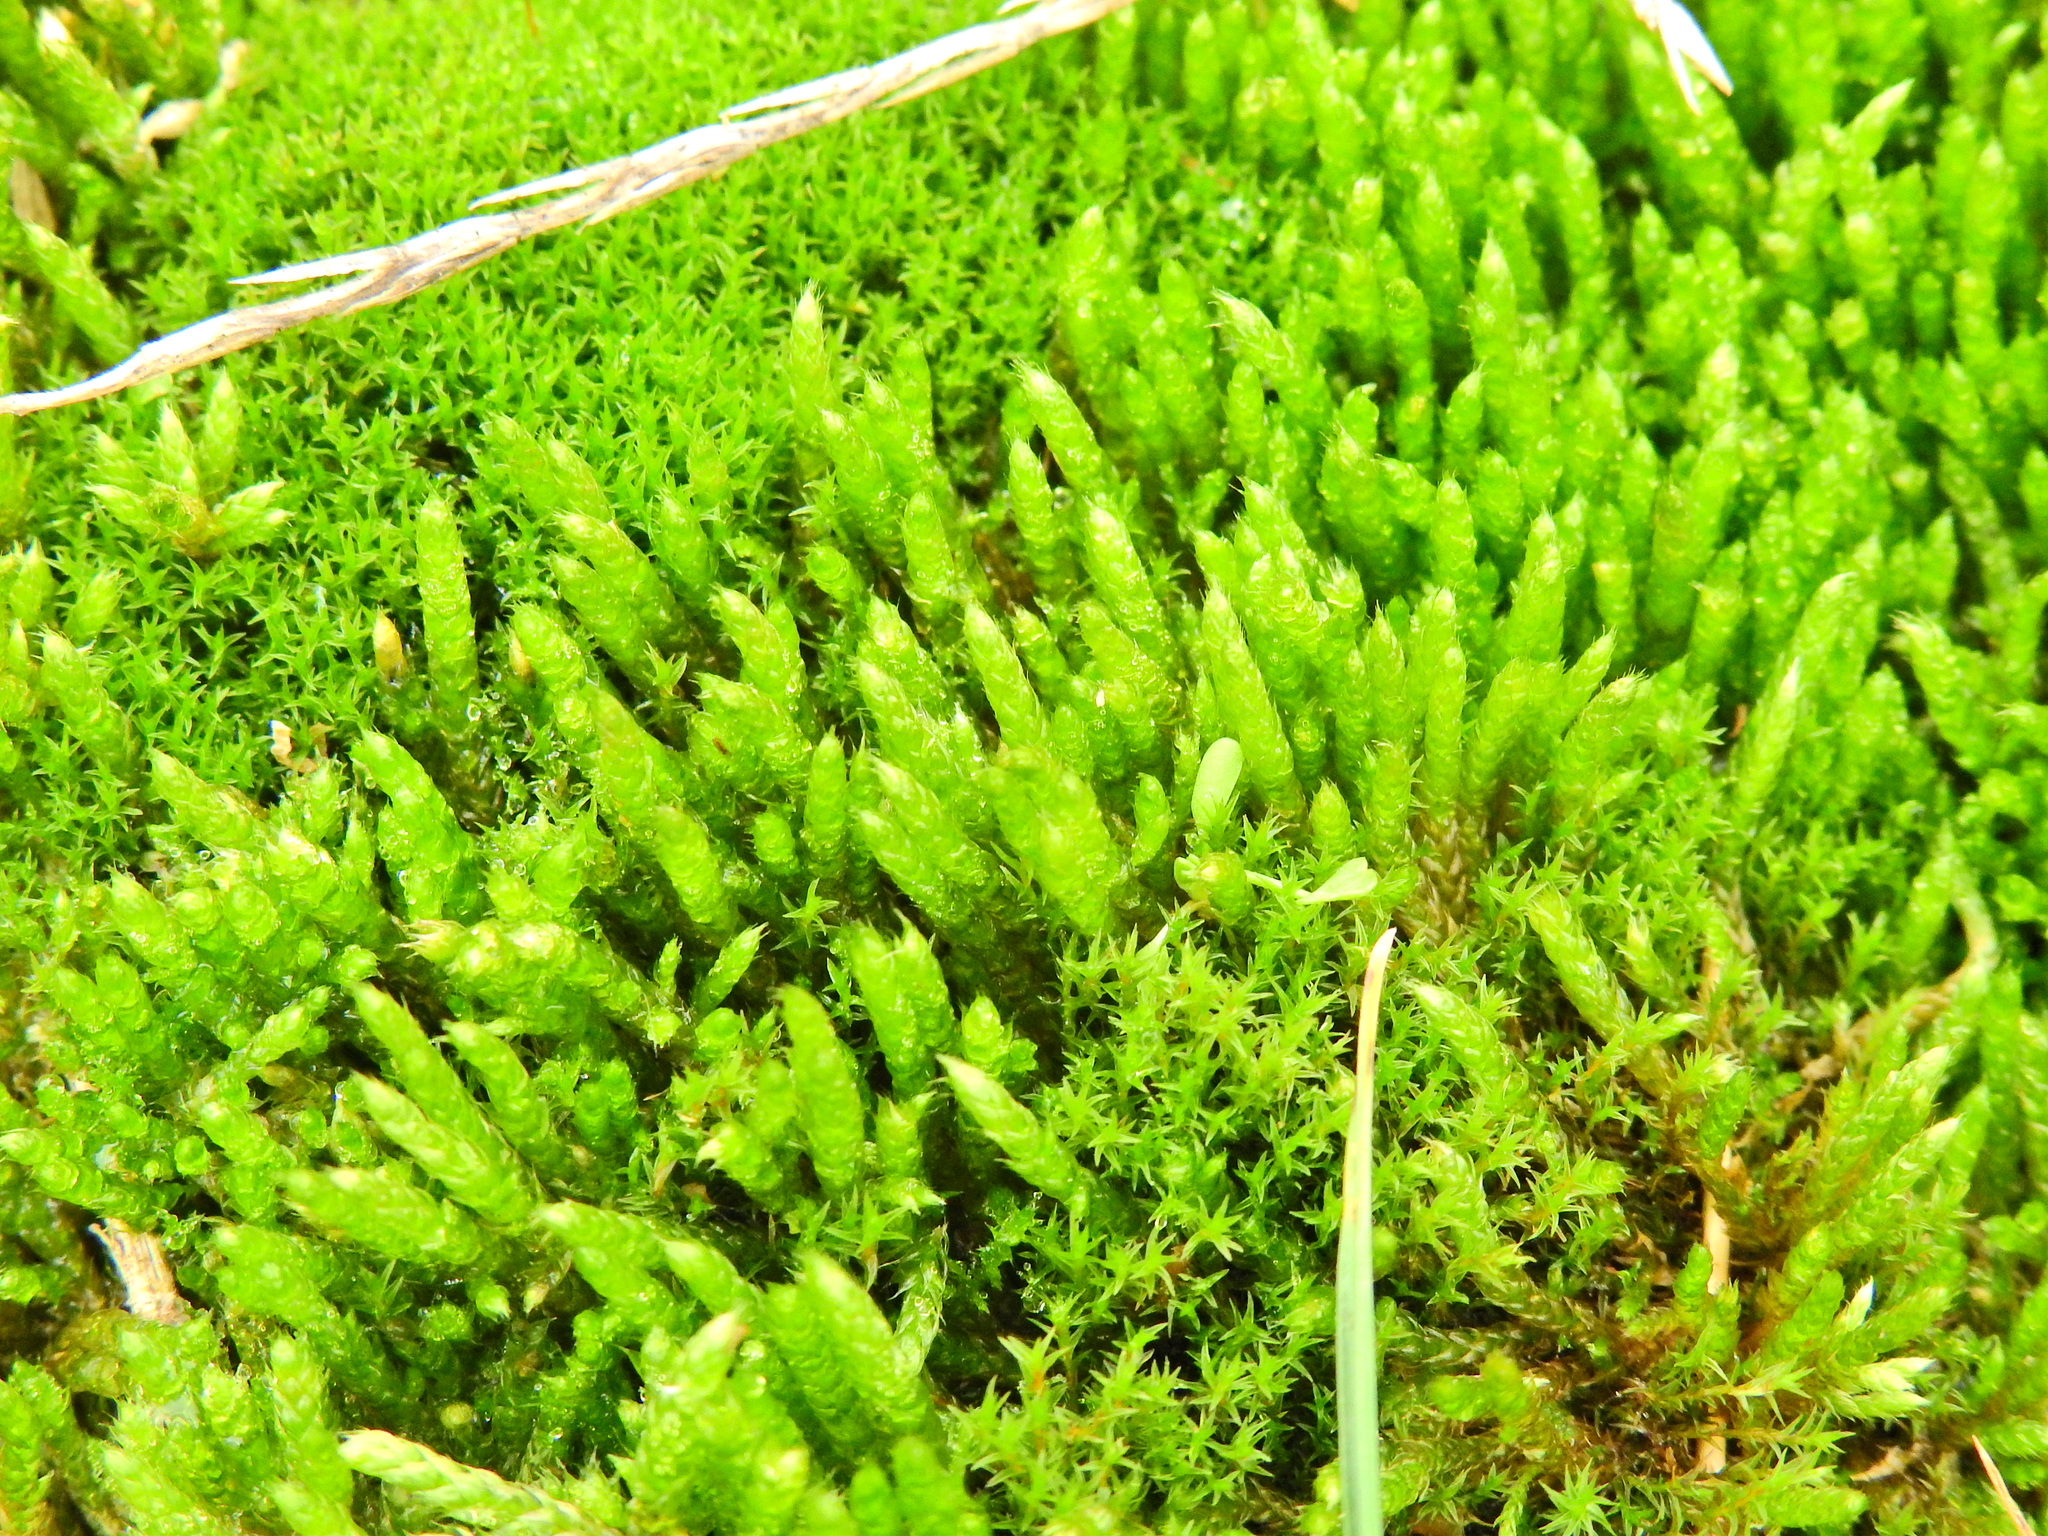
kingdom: Plantae
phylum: Bryophyta
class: Bryopsida
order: Hypnales
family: Brachytheciaceae
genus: Brachythecium
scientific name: Brachythecium albicans
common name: Whitish ragged moss
